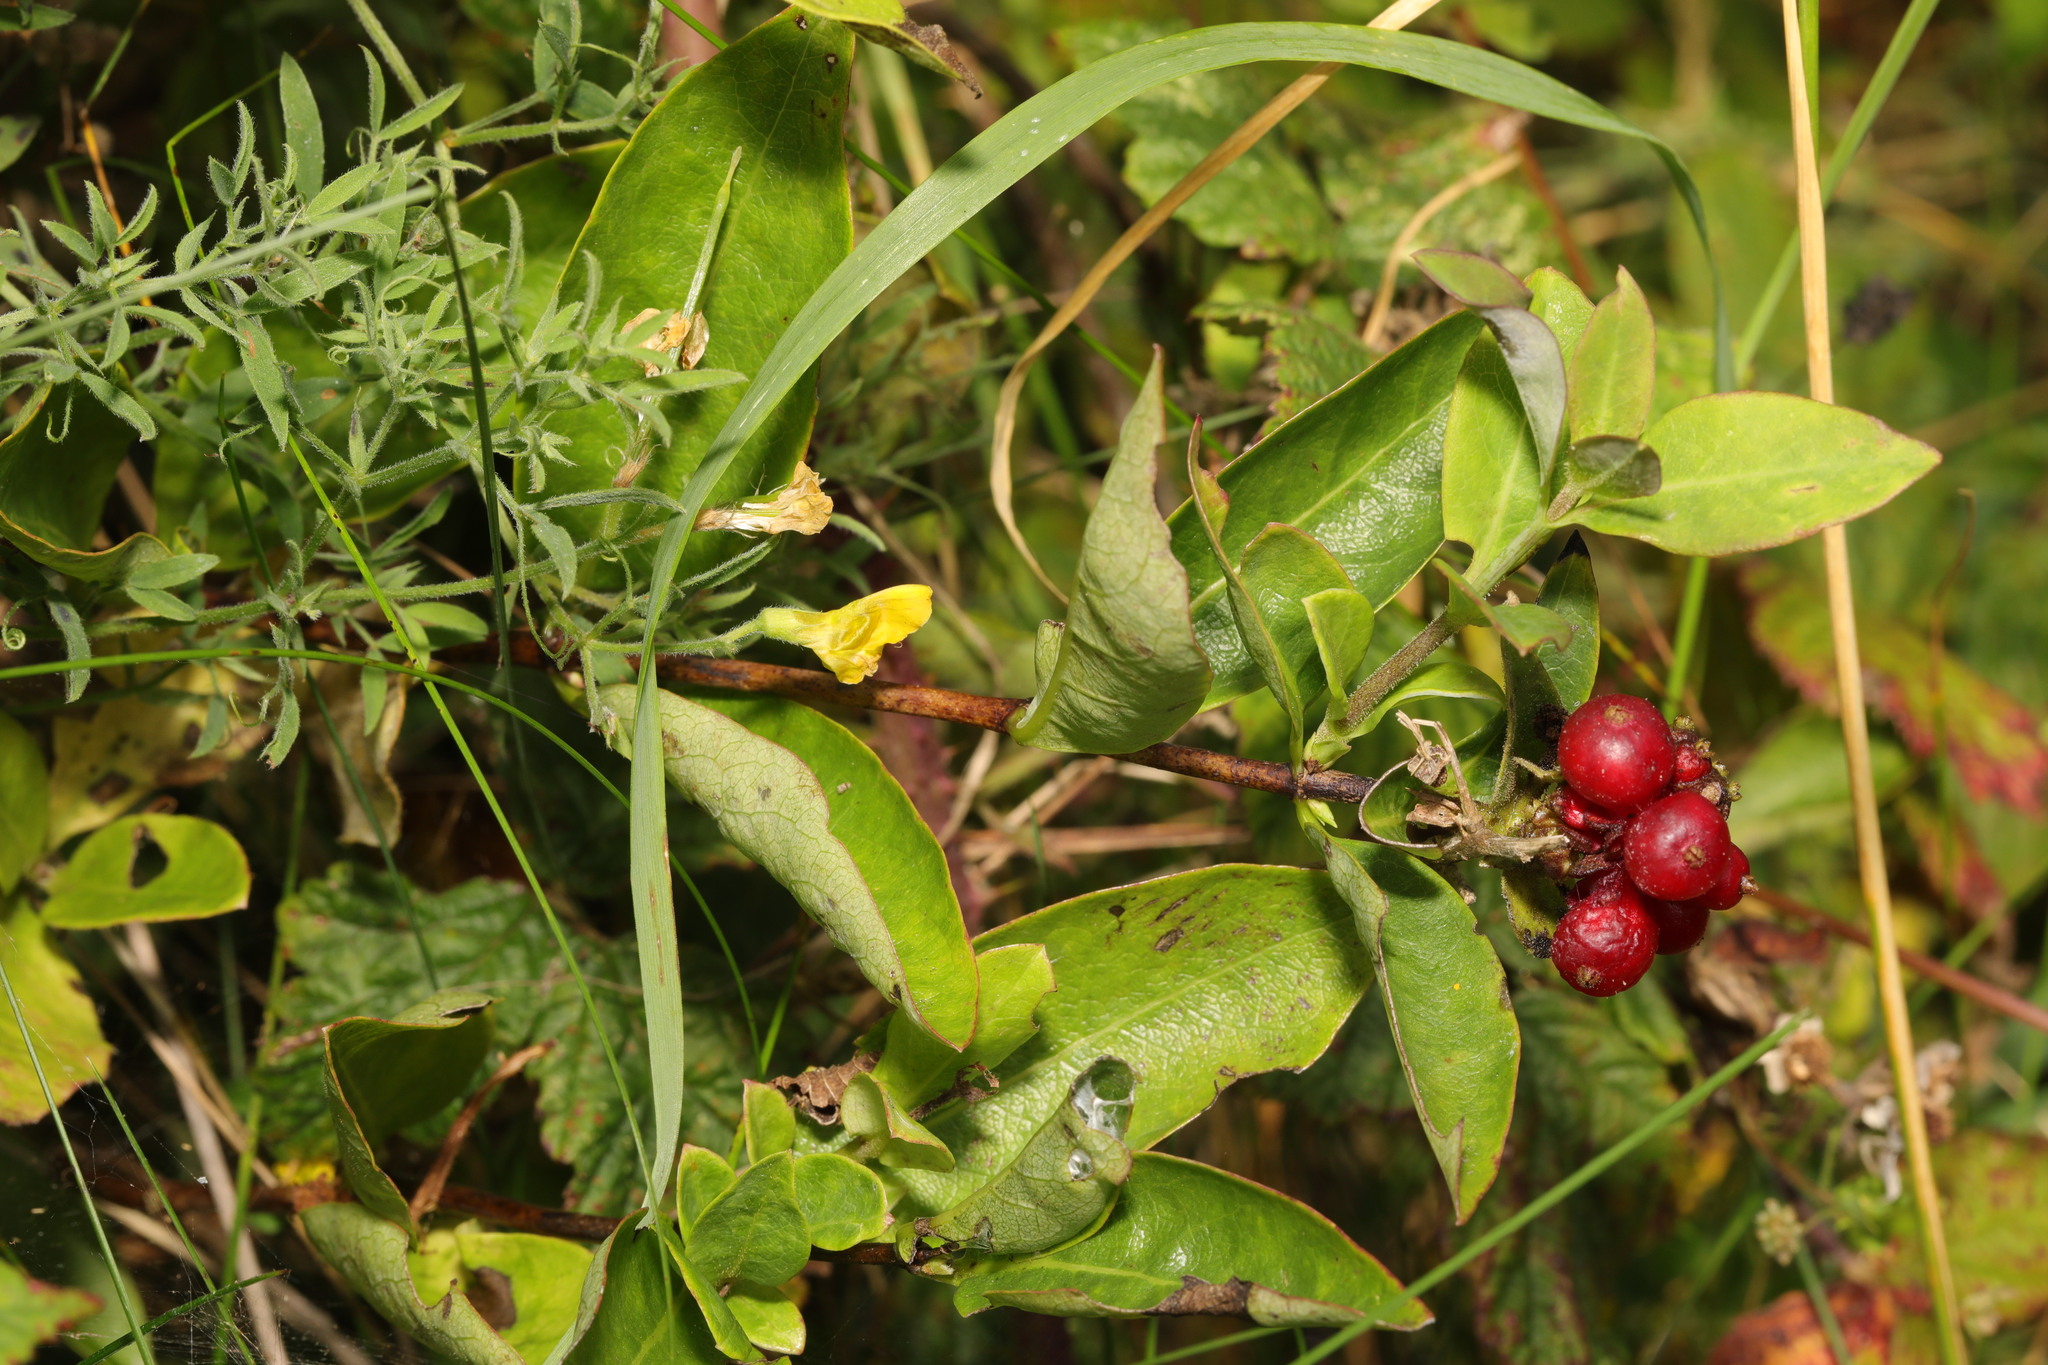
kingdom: Plantae
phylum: Tracheophyta
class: Magnoliopsida
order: Dipsacales
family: Caprifoliaceae
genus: Lonicera
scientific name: Lonicera periclymenum
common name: European honeysuckle
